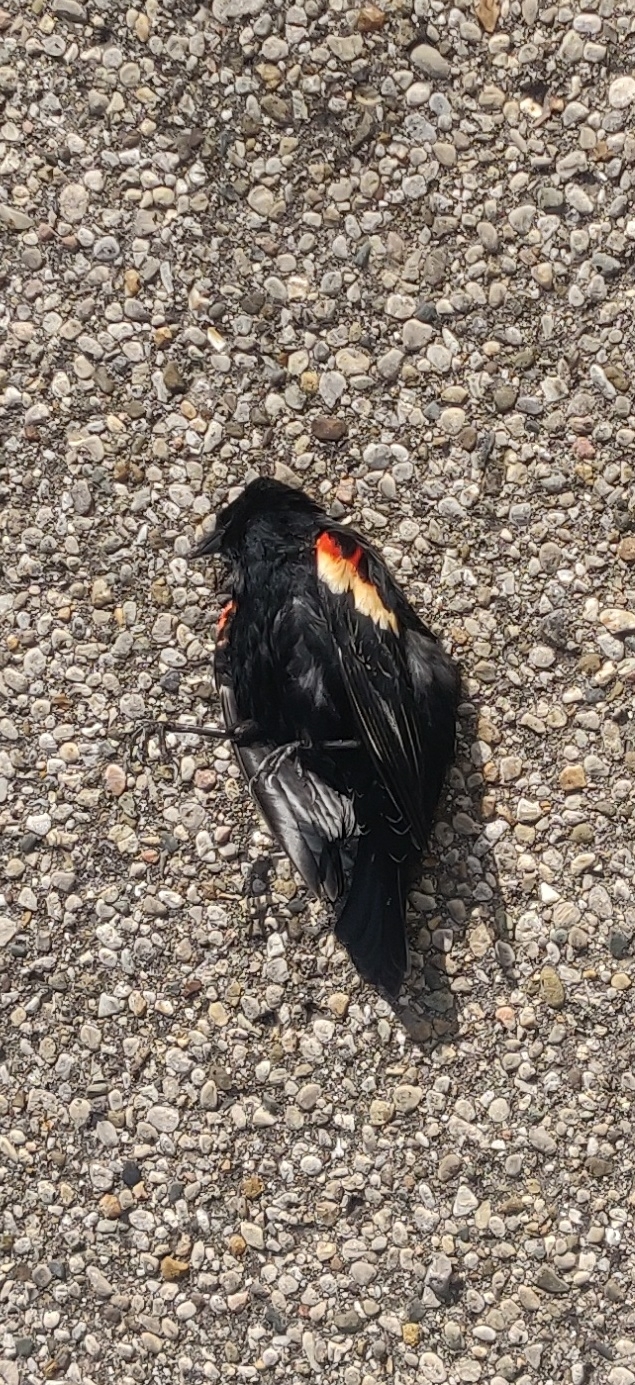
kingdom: Animalia
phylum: Chordata
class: Aves
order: Passeriformes
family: Icteridae
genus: Agelaius
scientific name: Agelaius phoeniceus
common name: Red-winged blackbird
